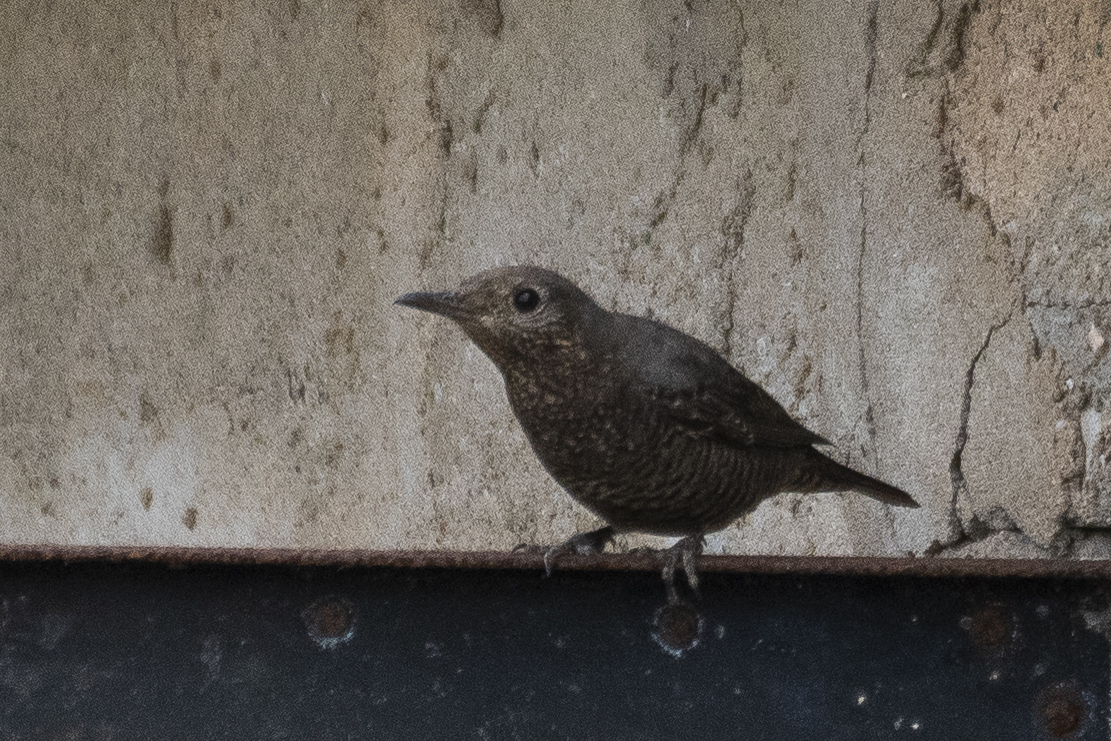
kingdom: Animalia
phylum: Chordata
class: Aves
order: Passeriformes
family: Muscicapidae
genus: Monticola
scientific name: Monticola solitarius
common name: Blue rock thrush
